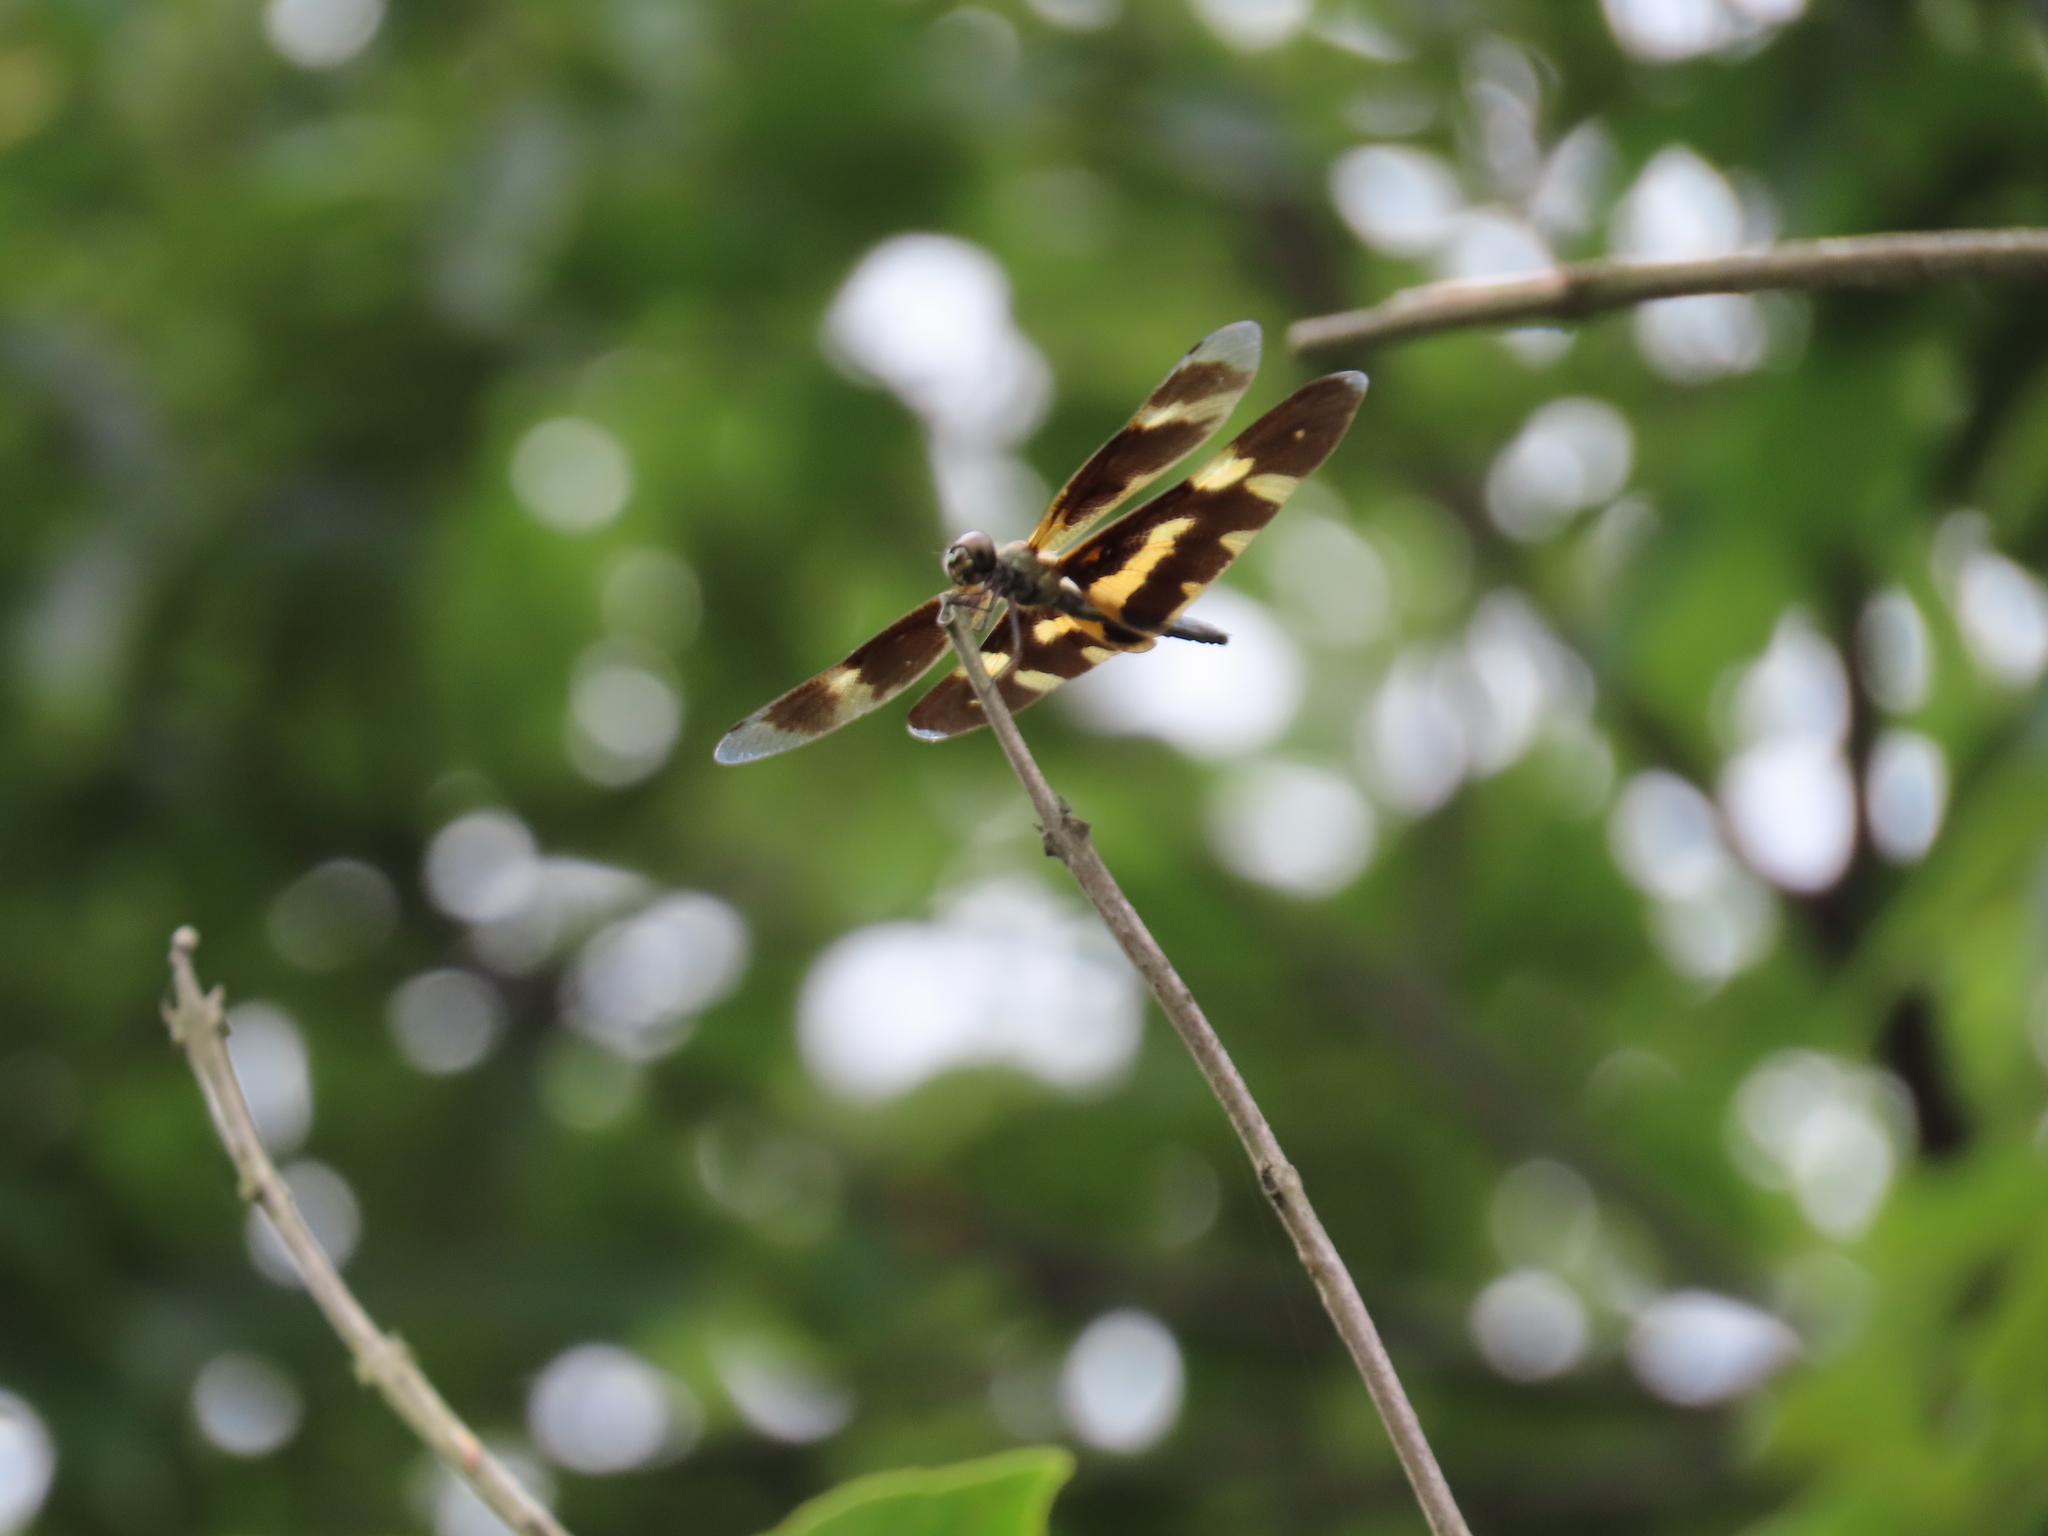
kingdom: Animalia
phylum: Arthropoda
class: Insecta
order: Odonata
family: Libellulidae
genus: Rhyothemis
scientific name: Rhyothemis variegata
